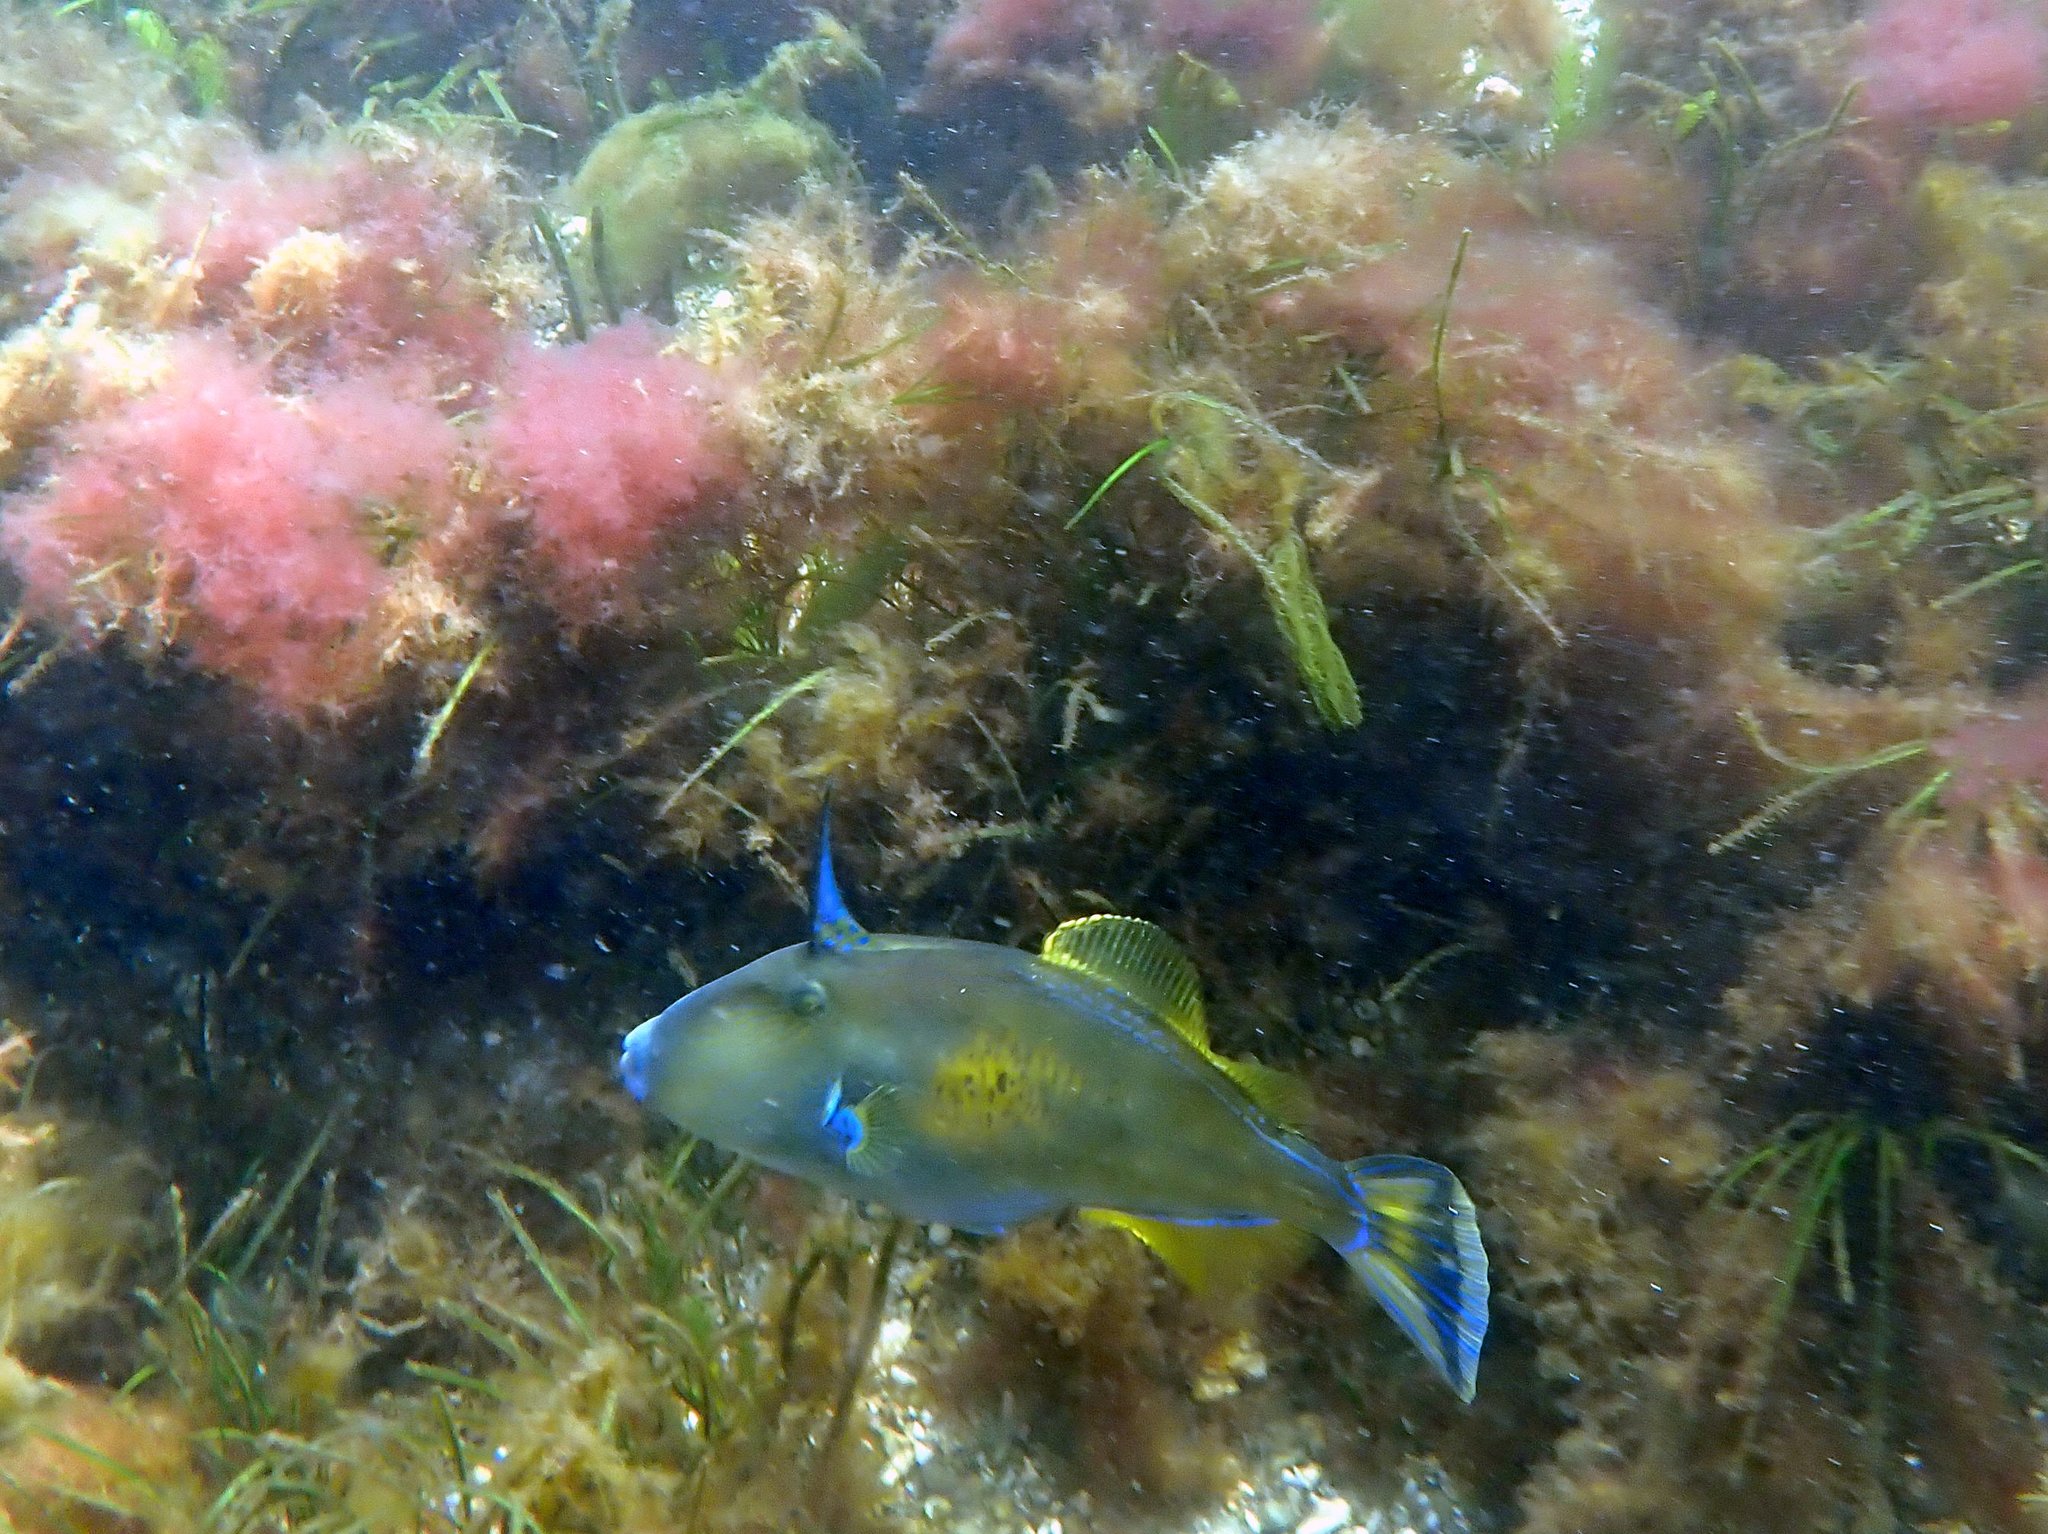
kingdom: Animalia
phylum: Chordata
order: Tetraodontiformes
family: Monacanthidae
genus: Meuschenia
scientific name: Meuschenia freycineti
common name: Freycinet's leatherjacket
